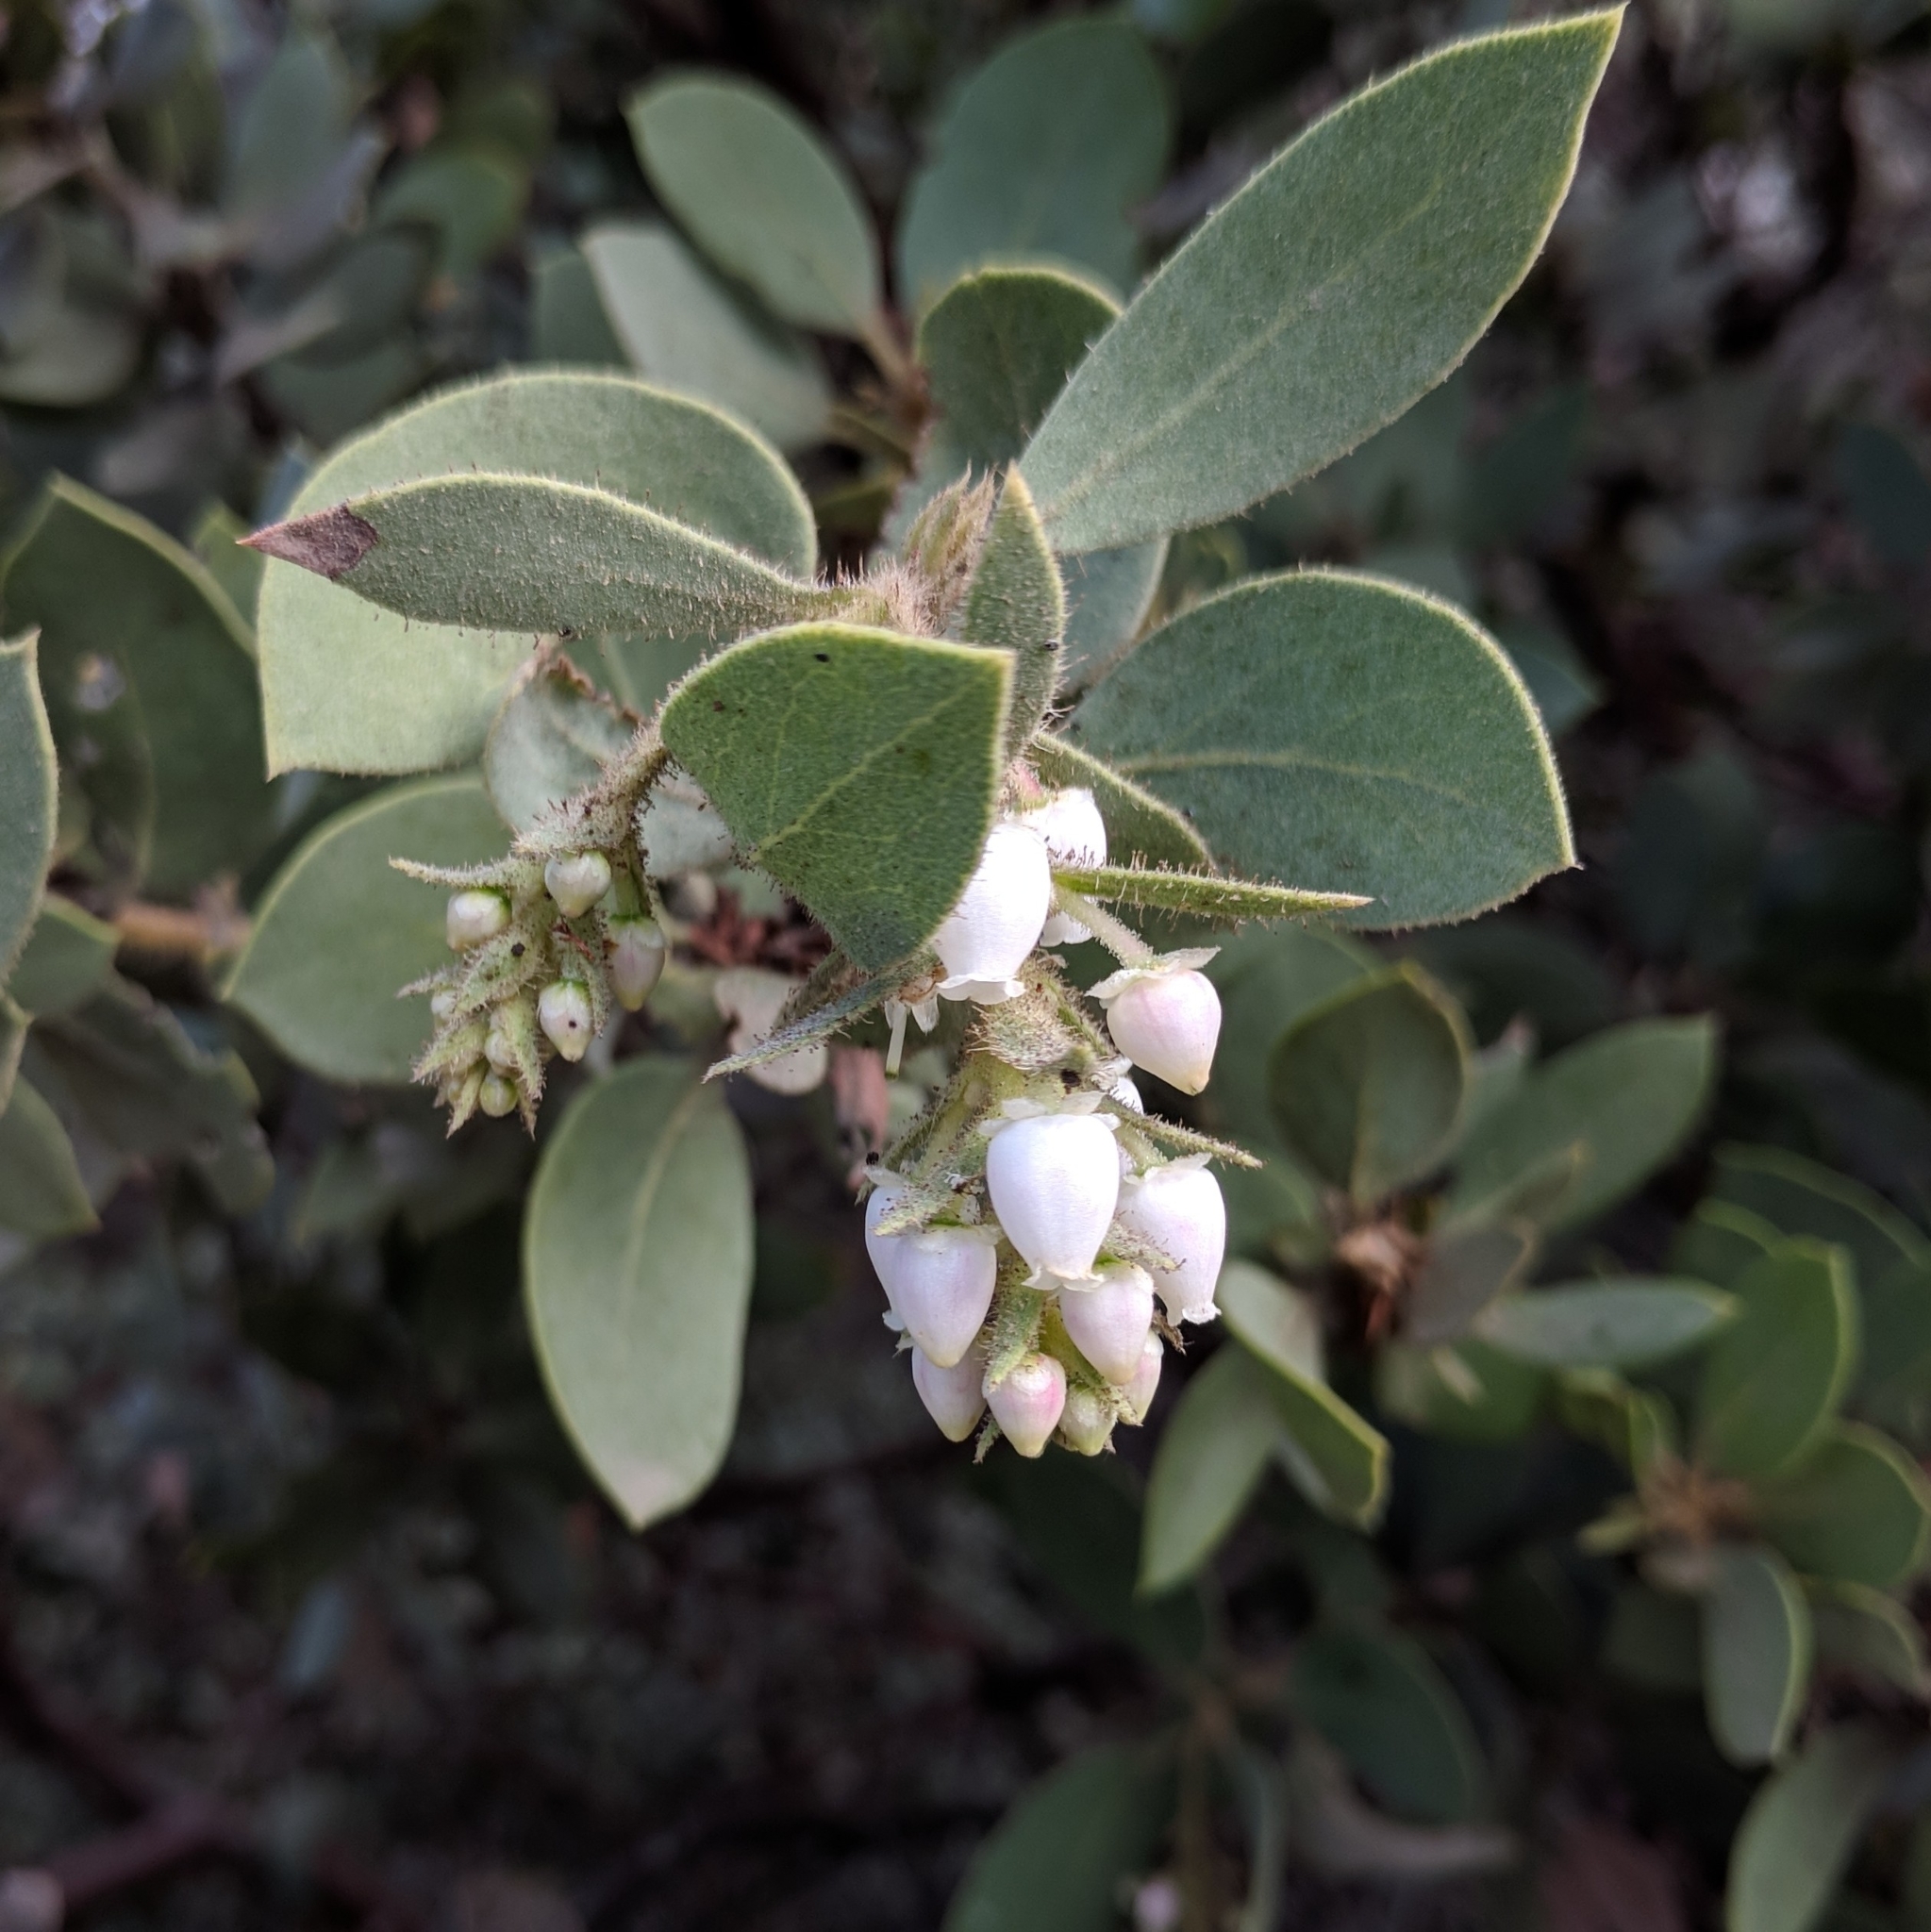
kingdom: Plantae
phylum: Tracheophyta
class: Magnoliopsida
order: Ericales
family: Ericaceae
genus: Arctostaphylos
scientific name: Arctostaphylos glandulosa
